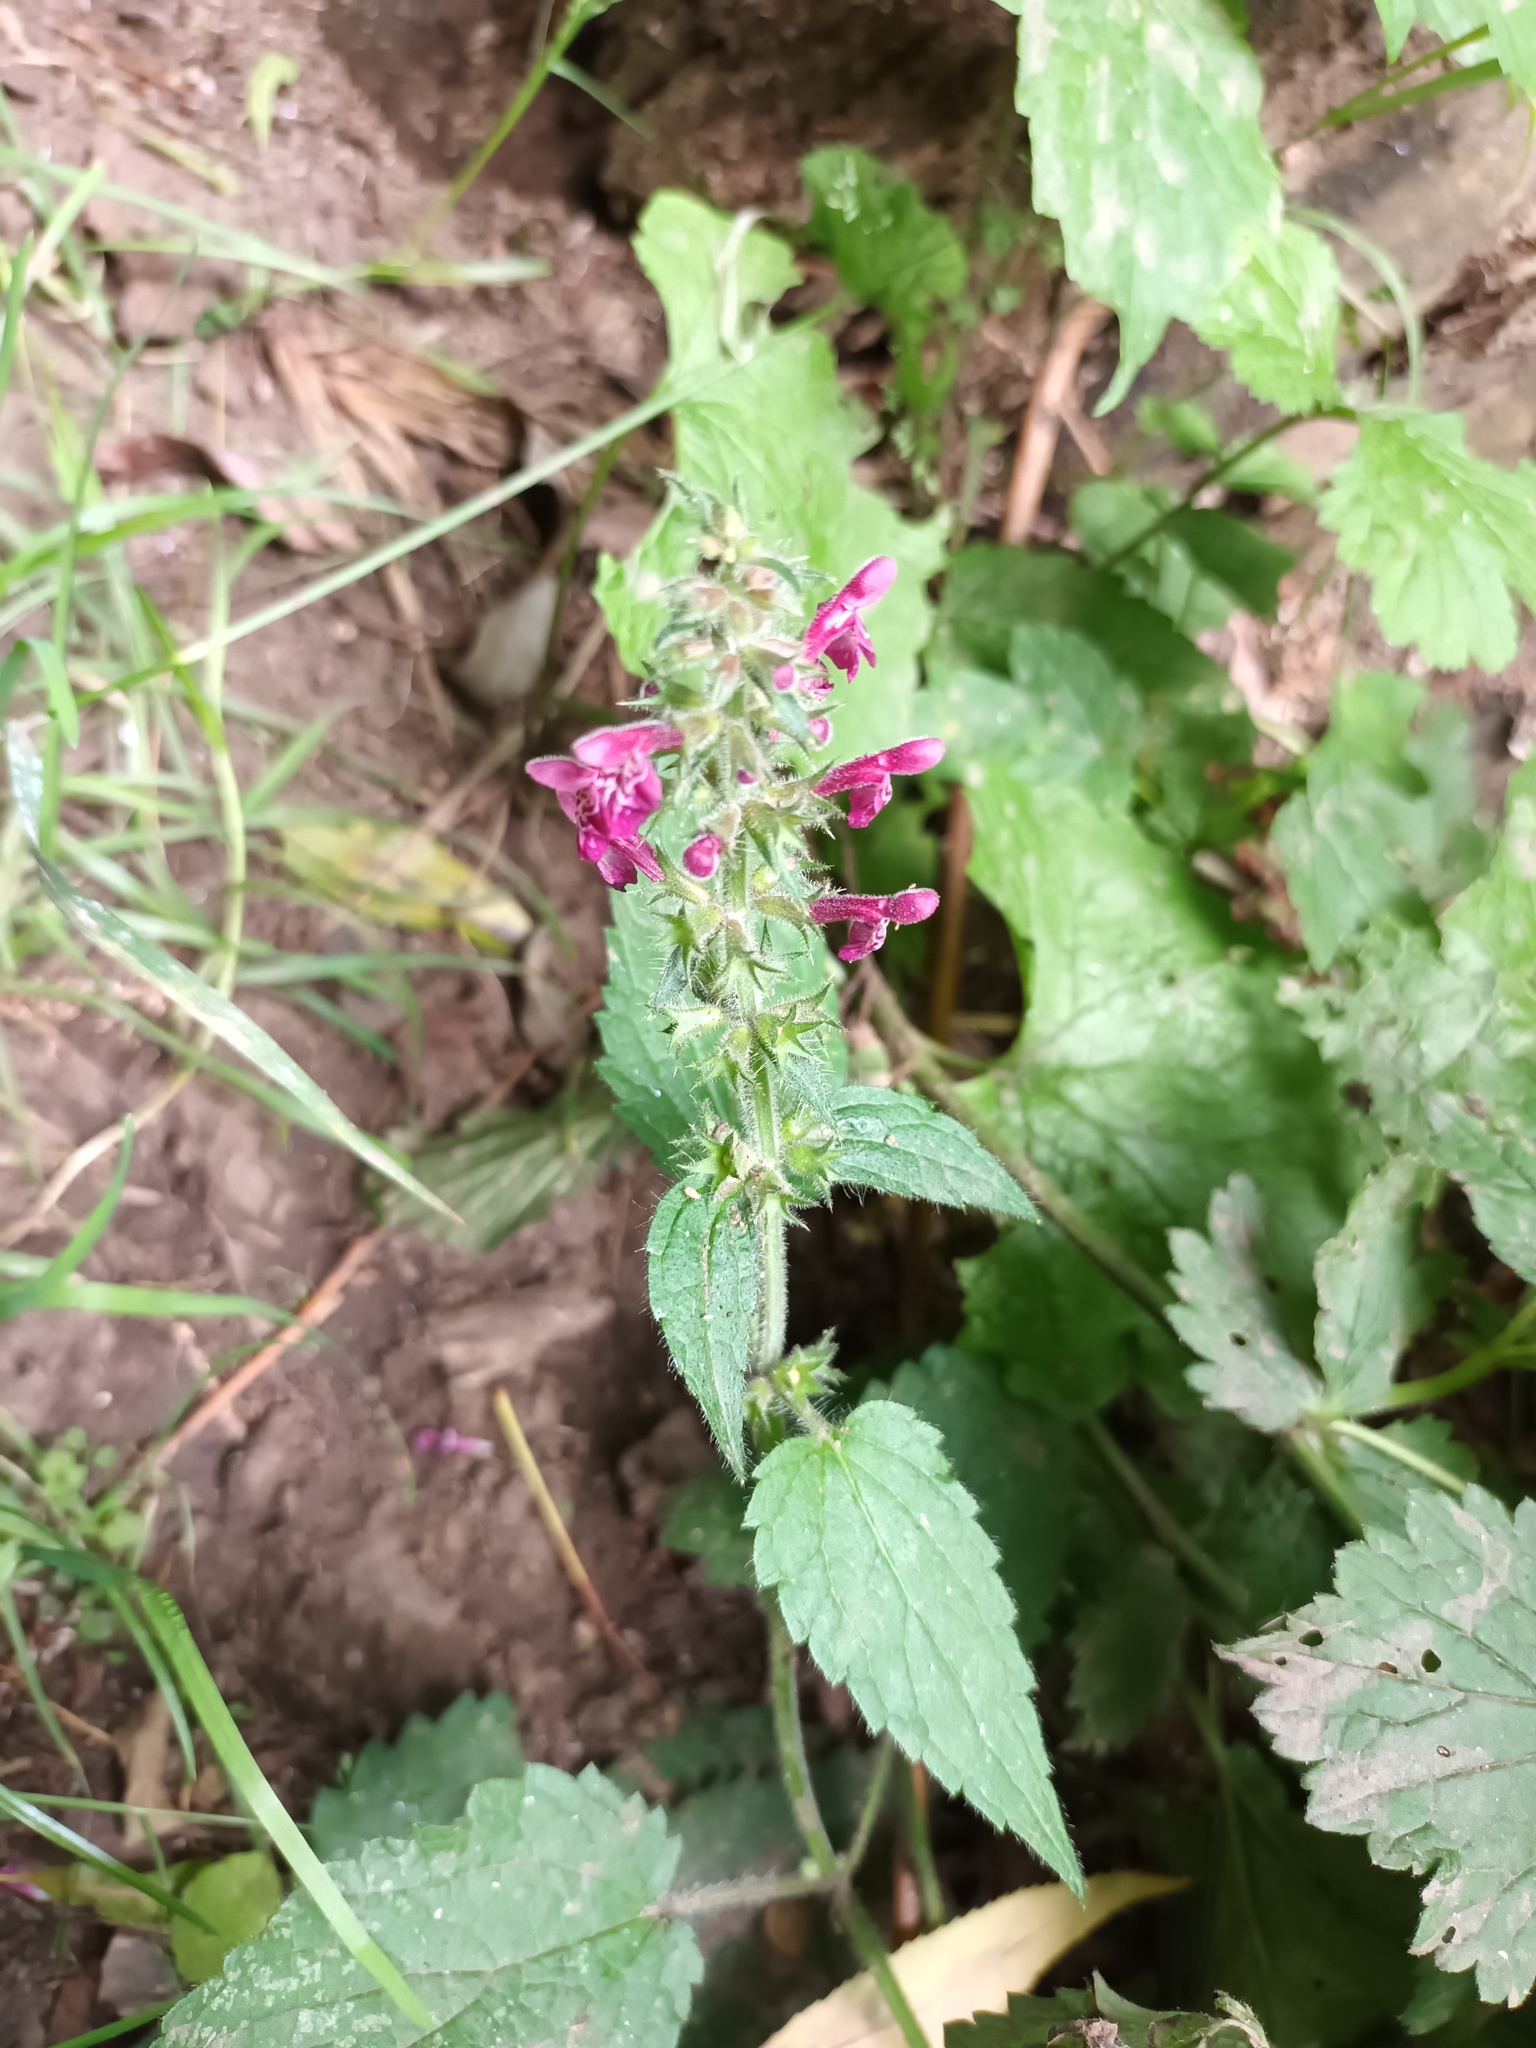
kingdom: Plantae
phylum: Tracheophyta
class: Magnoliopsida
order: Lamiales
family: Lamiaceae
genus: Stachys
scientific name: Stachys sylvatica
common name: Hedge woundwort
